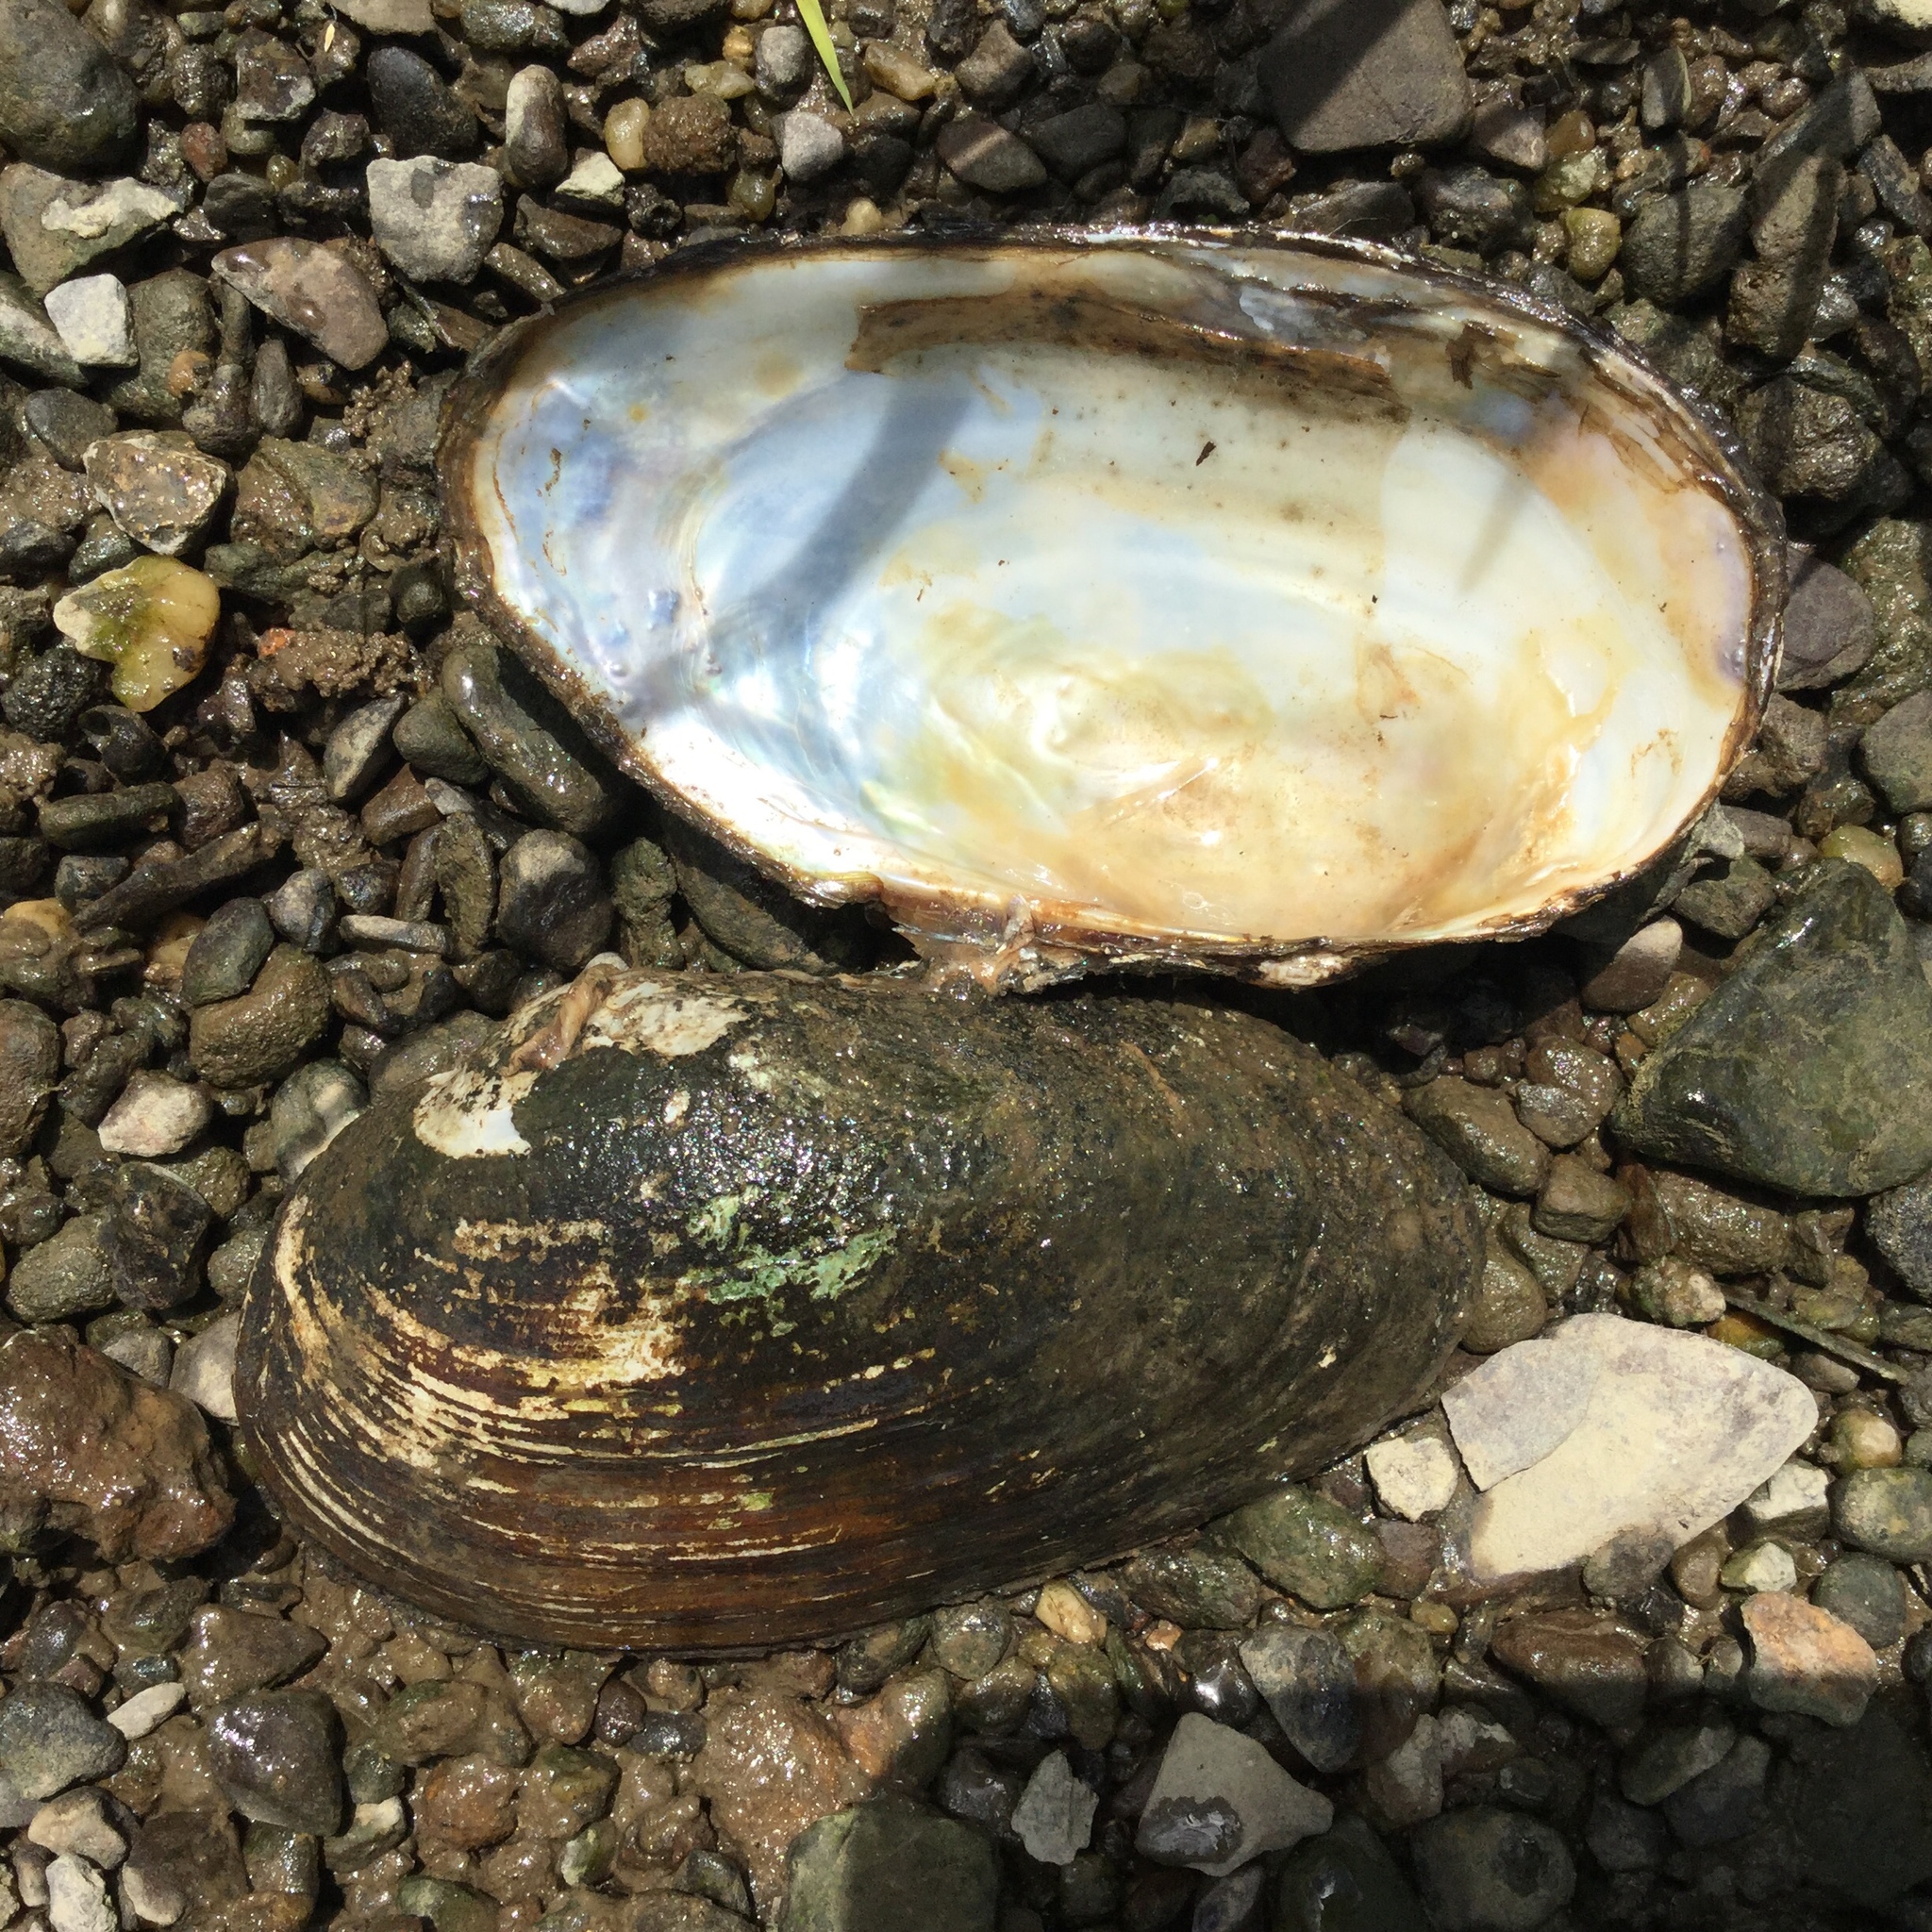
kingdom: Animalia
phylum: Mollusca
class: Bivalvia
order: Unionida
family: Unionidae
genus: Pyganodon
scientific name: Pyganodon grandis
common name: Giant floater
